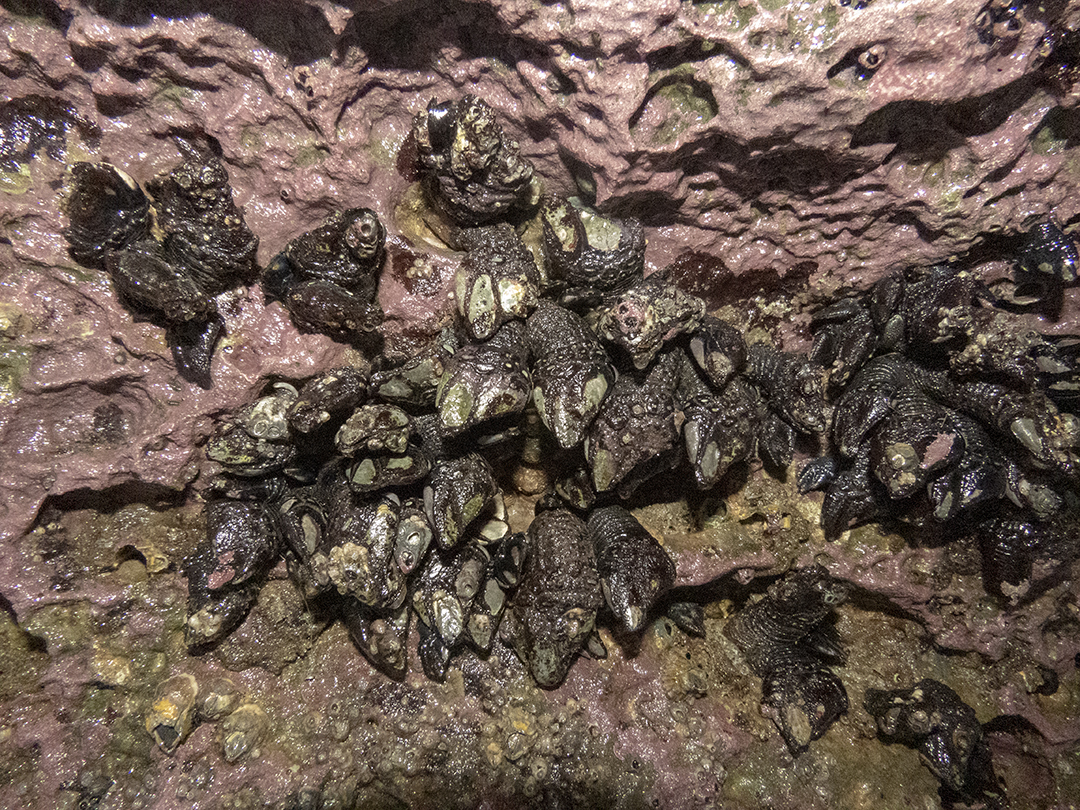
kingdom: Animalia
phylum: Arthropoda
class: Maxillopoda
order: Pedunculata
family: Calanticidae
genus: Calantica
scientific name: Calantica spinosa
